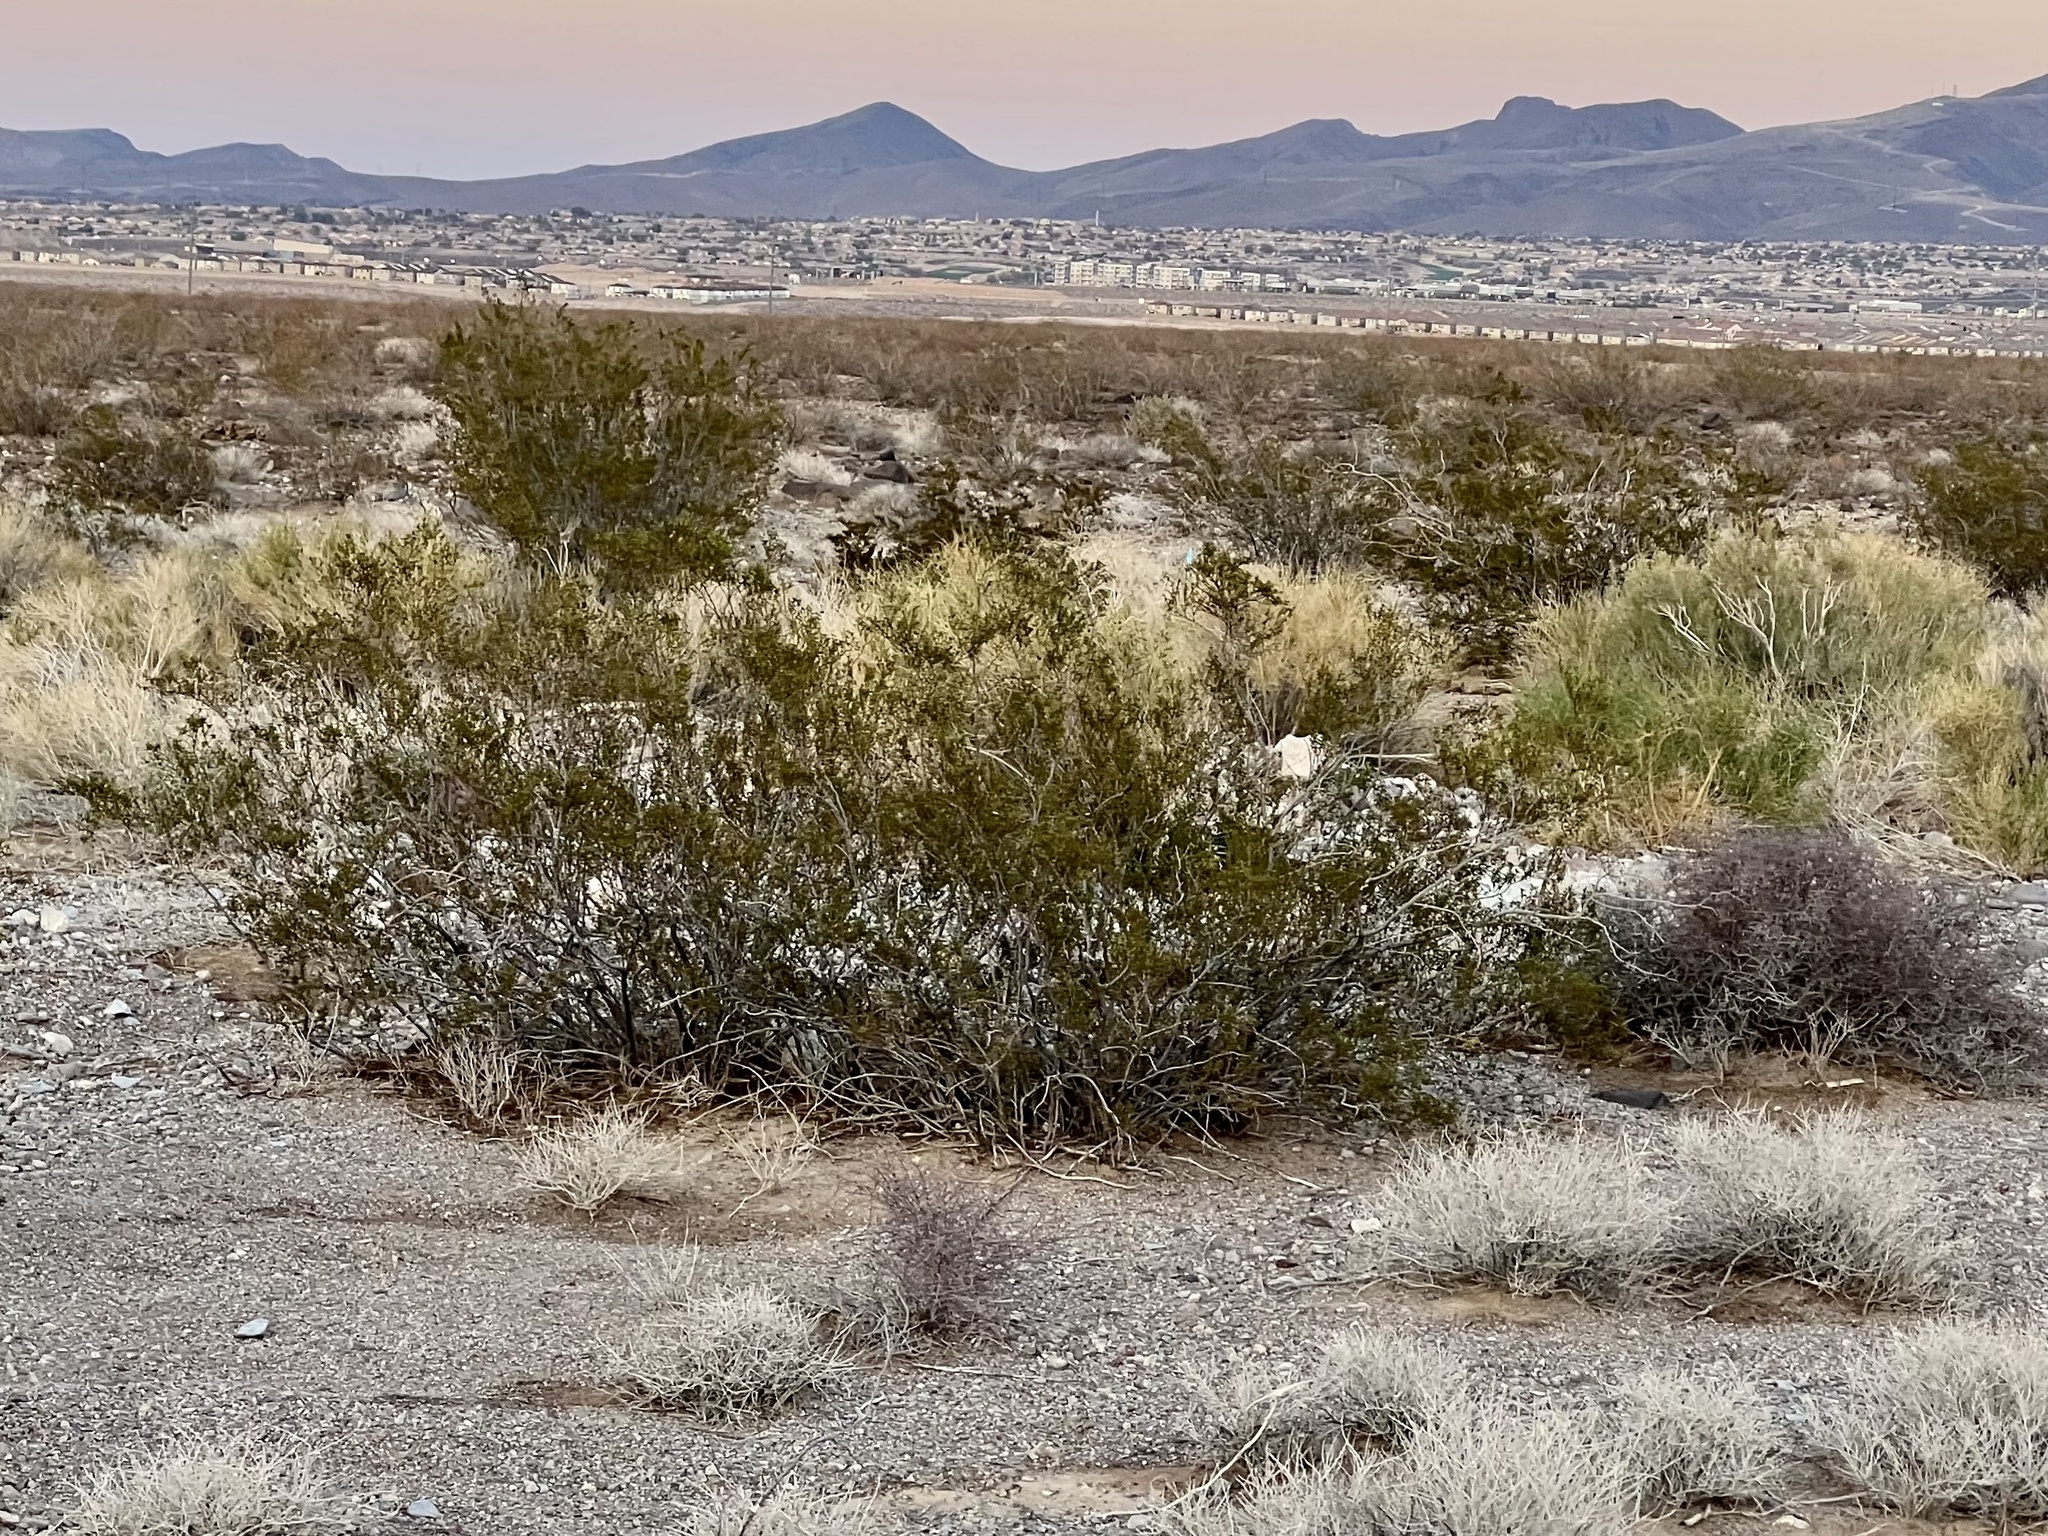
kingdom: Plantae
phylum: Tracheophyta
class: Magnoliopsida
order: Zygophyllales
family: Zygophyllaceae
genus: Larrea
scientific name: Larrea tridentata
